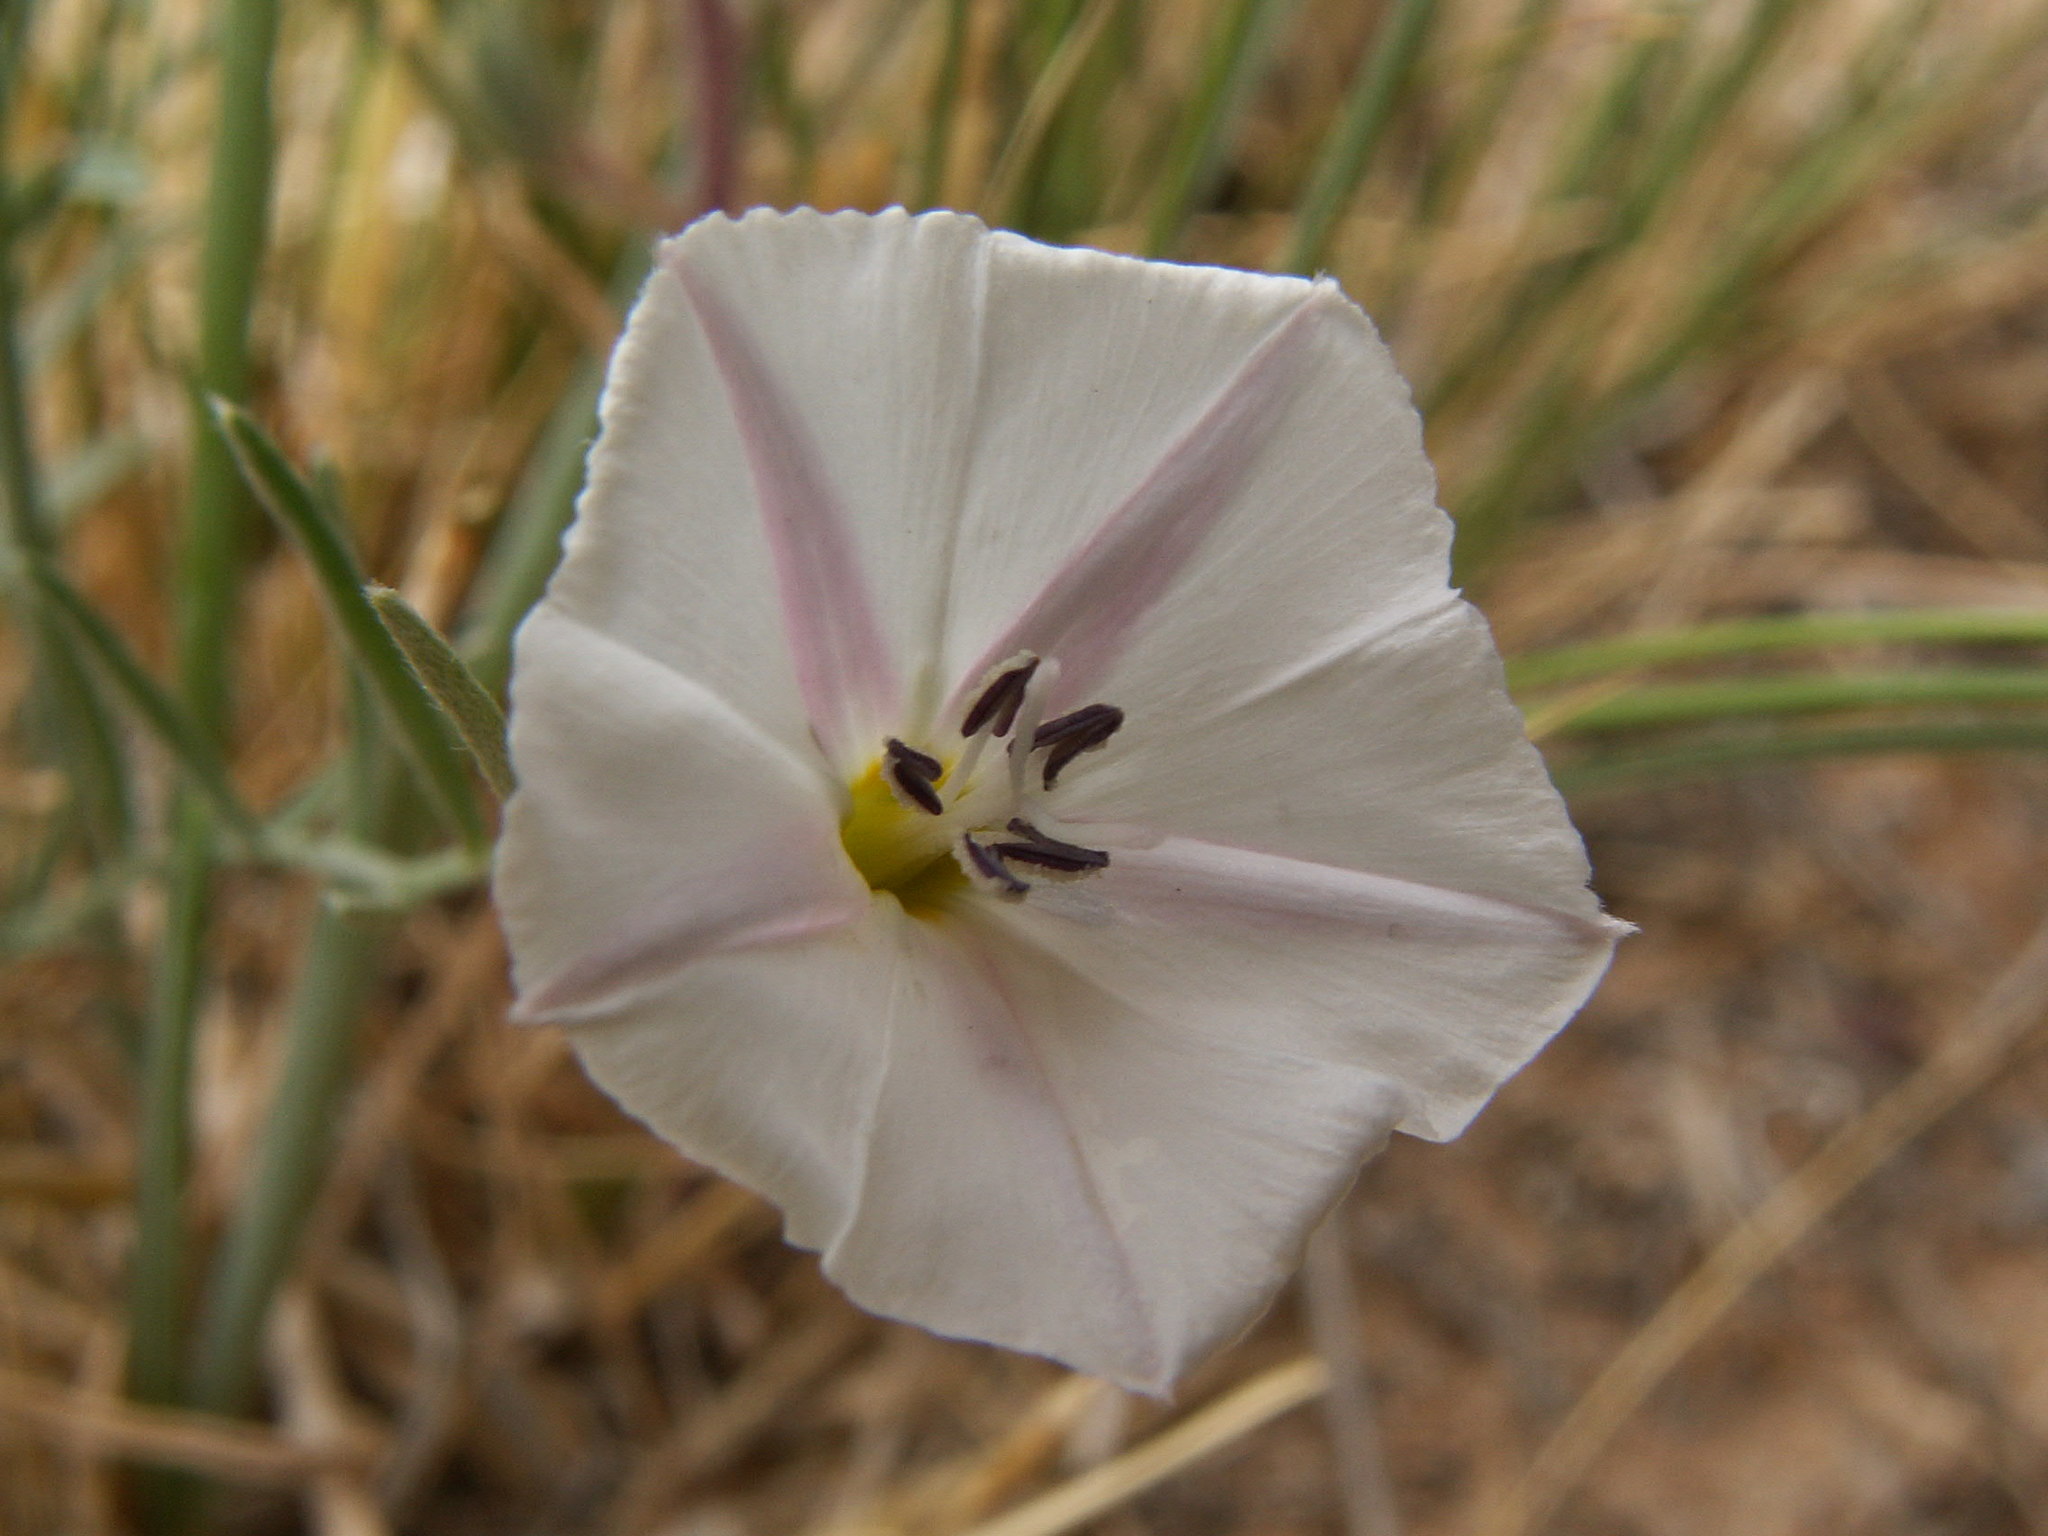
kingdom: Plantae
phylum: Tracheophyta
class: Magnoliopsida
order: Solanales
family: Convolvulaceae
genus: Convolvulus
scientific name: Convolvulus ammannii
